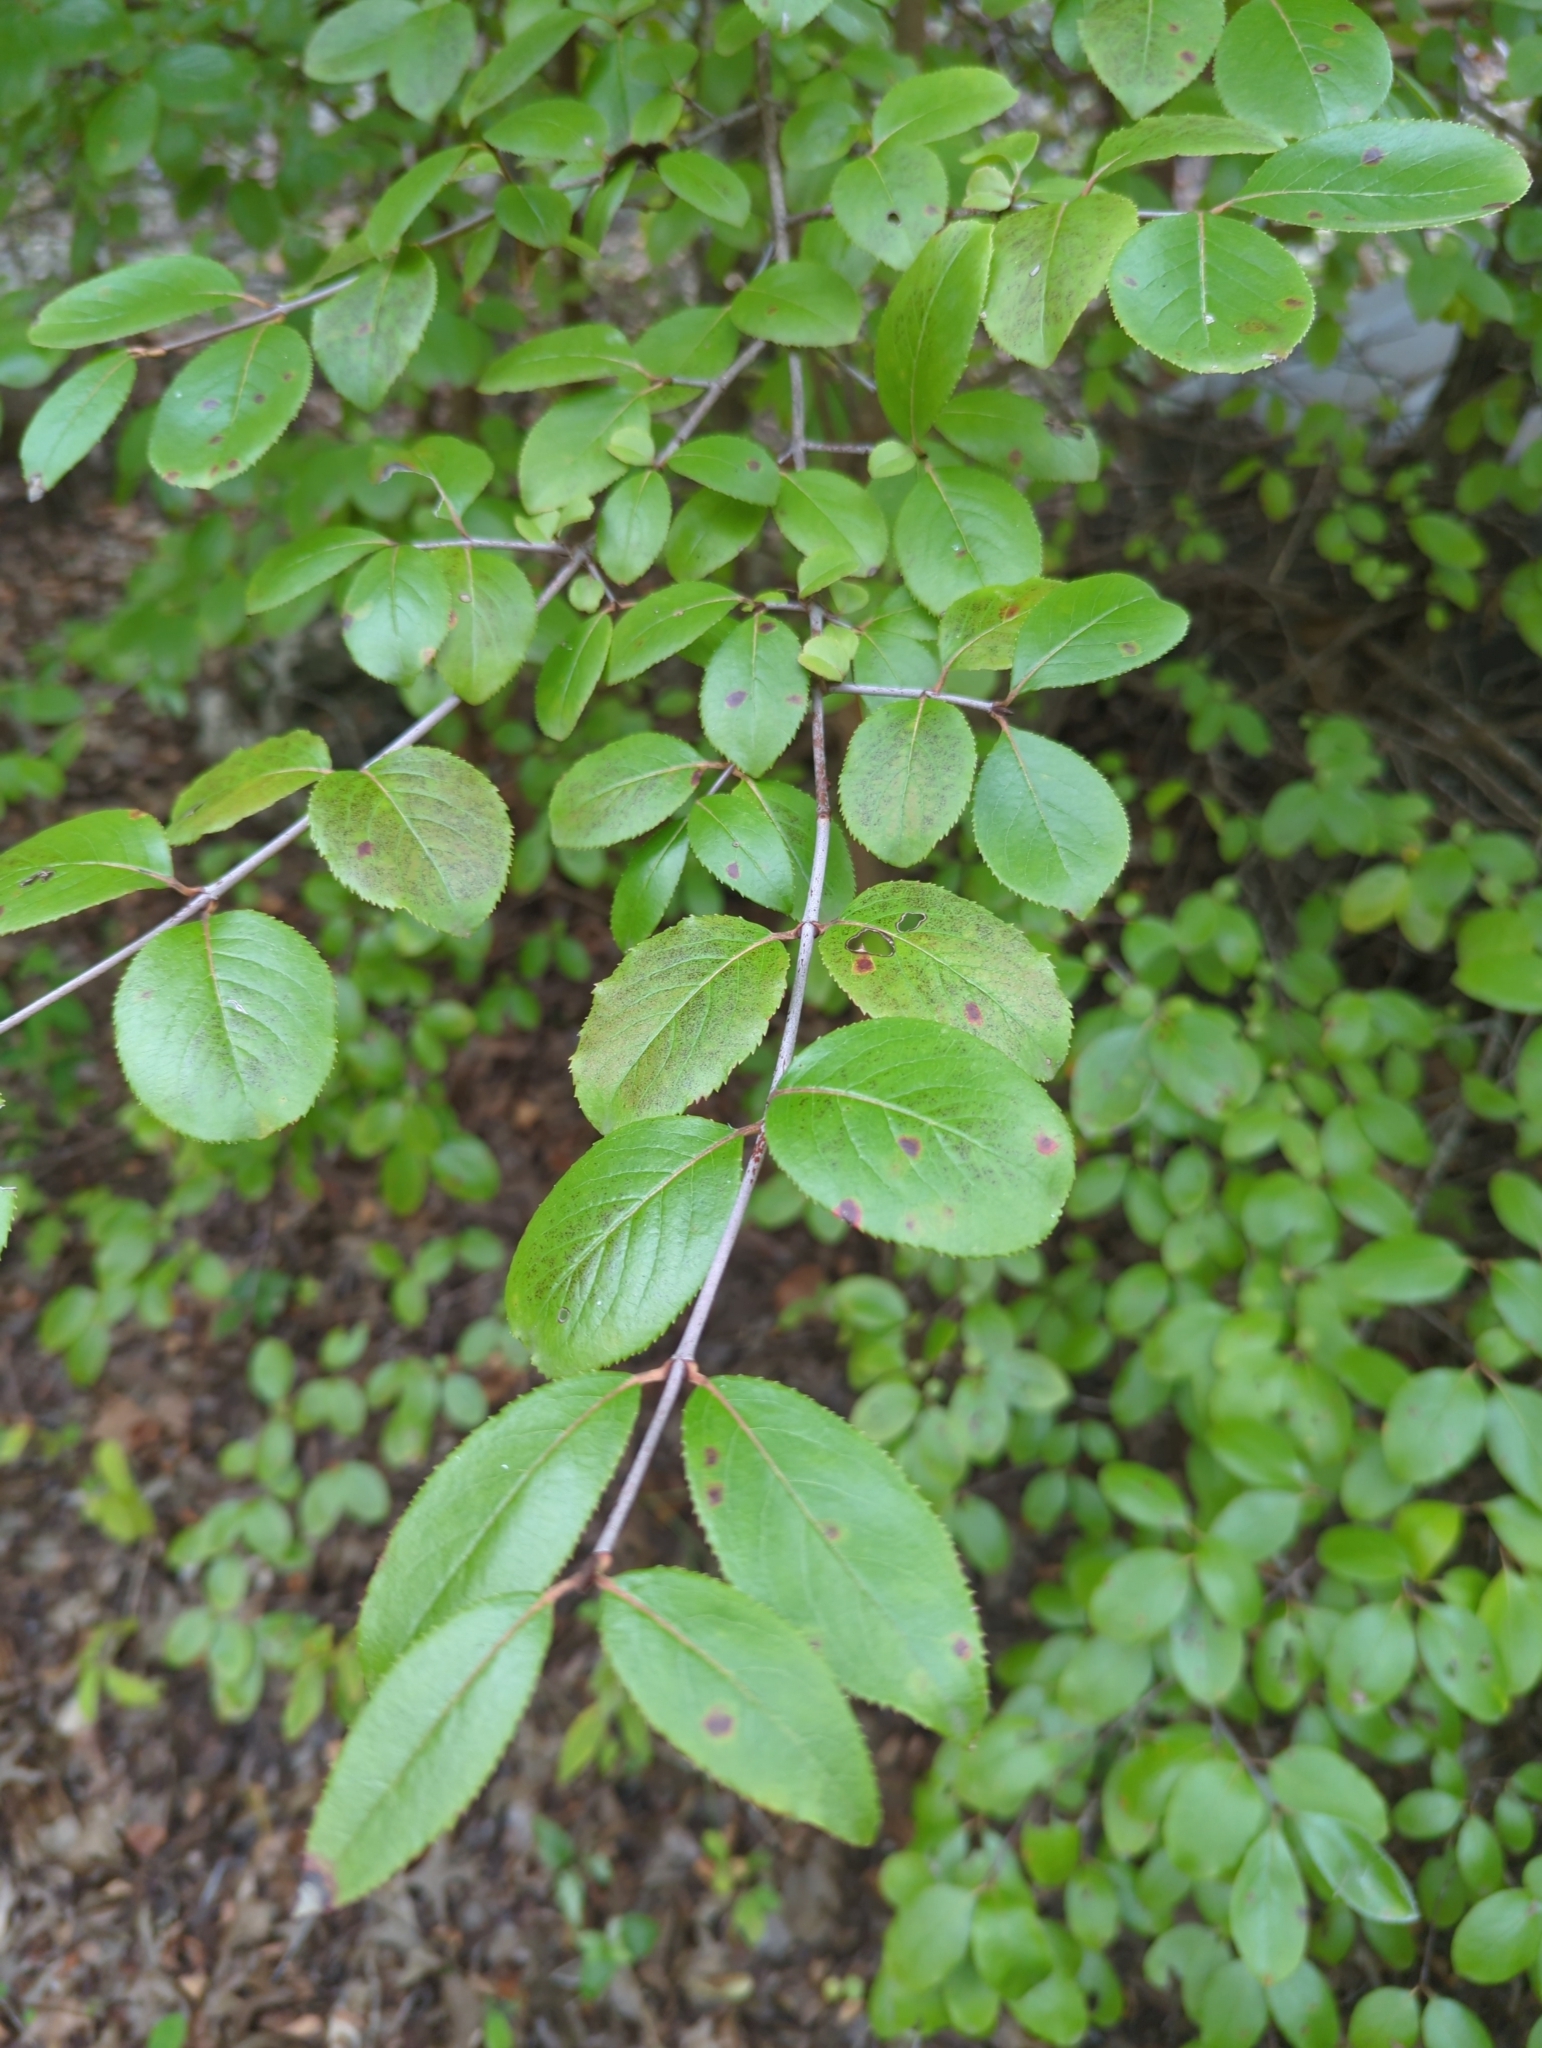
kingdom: Plantae
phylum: Tracheophyta
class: Magnoliopsida
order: Dipsacales
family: Viburnaceae
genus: Viburnum
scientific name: Viburnum rufidulum
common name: Blue haw
